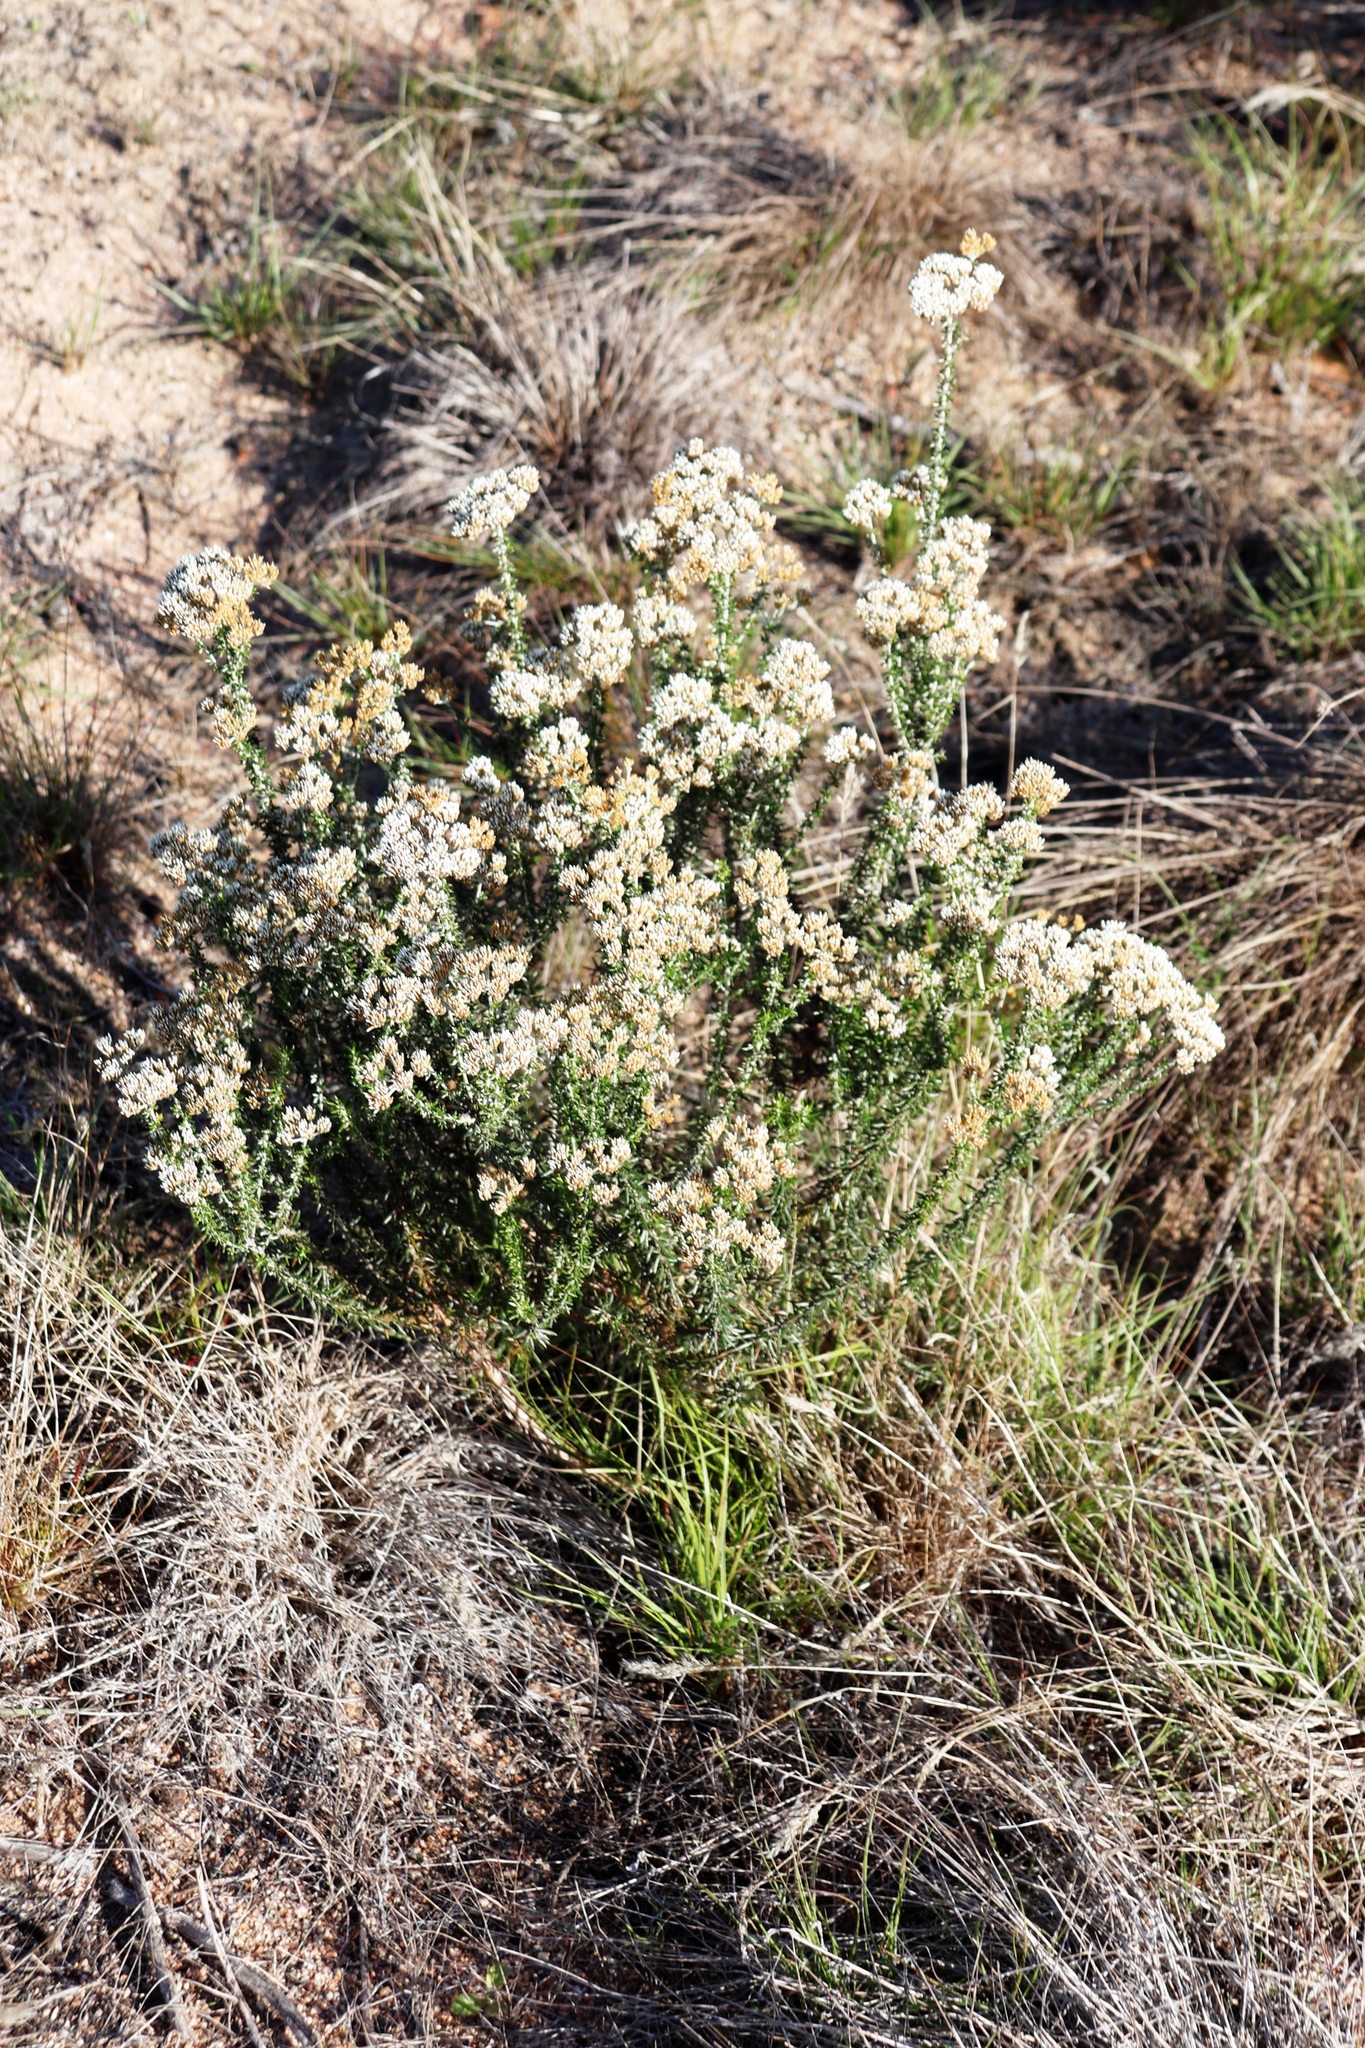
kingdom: Plantae
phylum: Tracheophyta
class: Magnoliopsida
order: Asterales
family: Asteraceae
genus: Metalasia
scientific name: Metalasia densa
